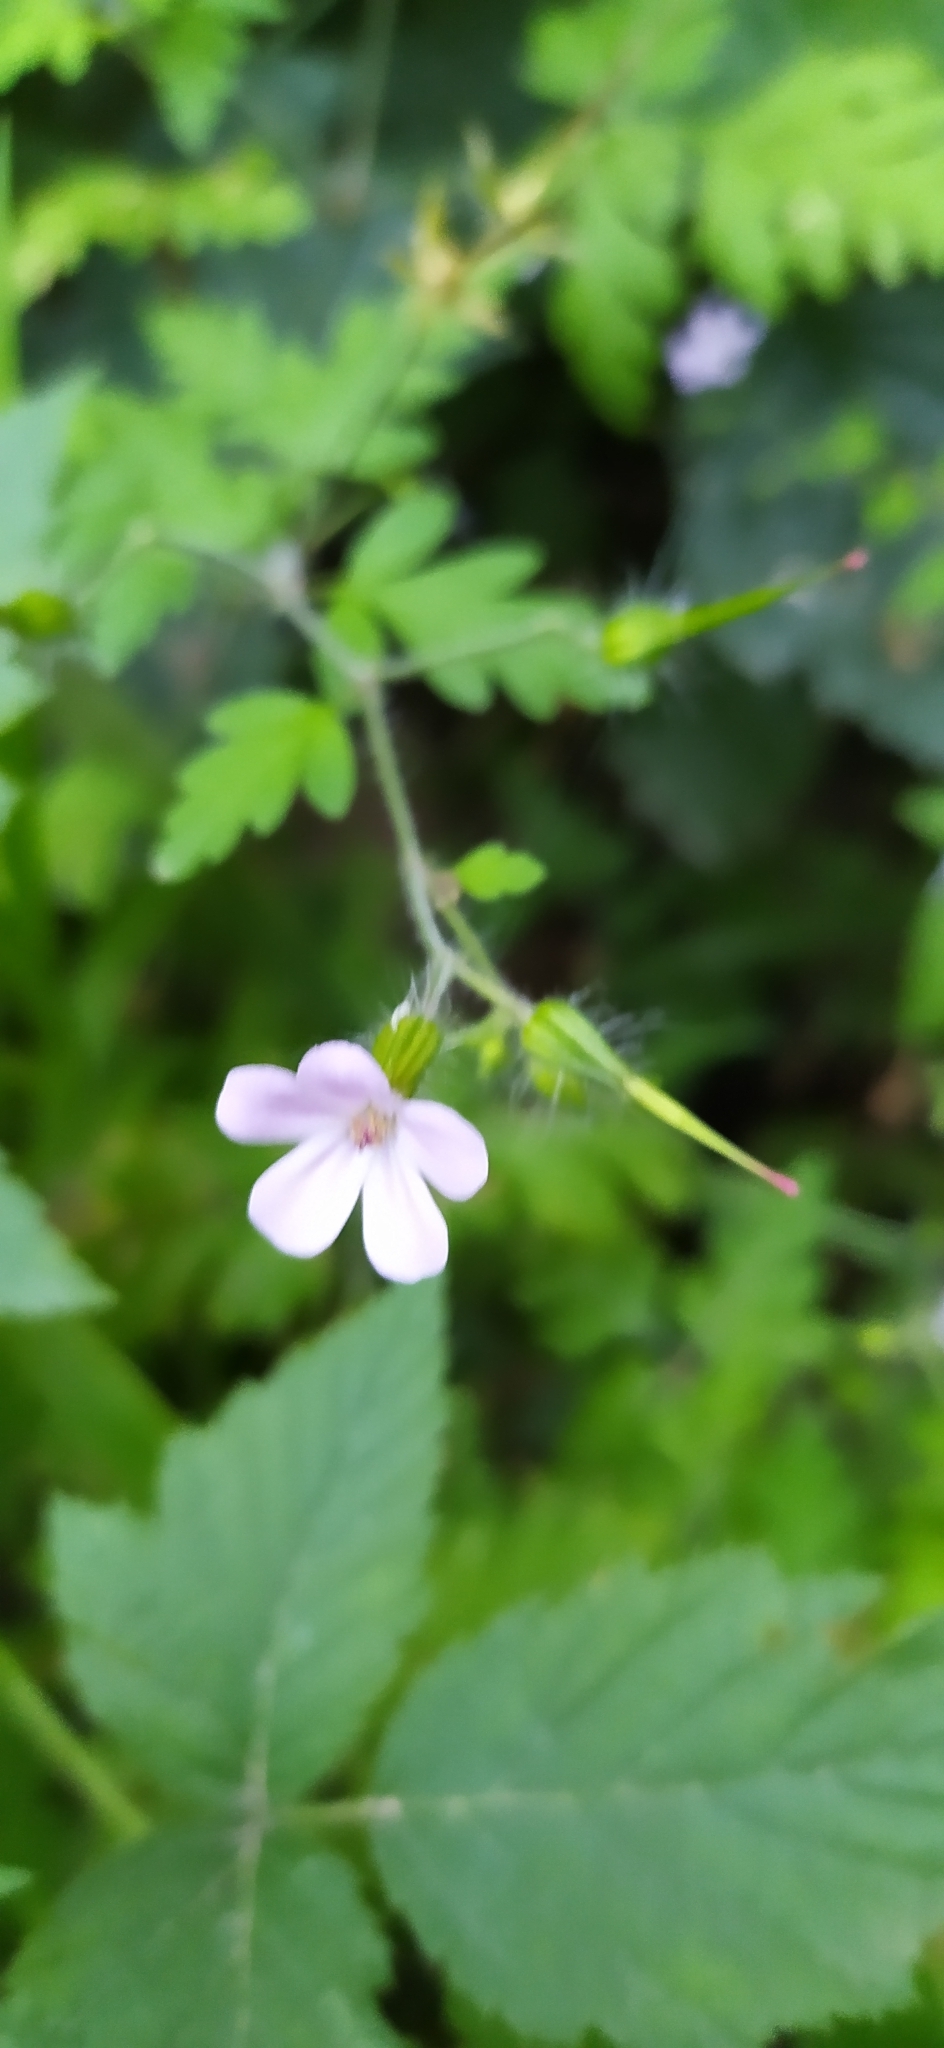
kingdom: Plantae
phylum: Tracheophyta
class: Magnoliopsida
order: Geraniales
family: Geraniaceae
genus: Geranium
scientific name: Geranium robertianum
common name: Herb-robert
